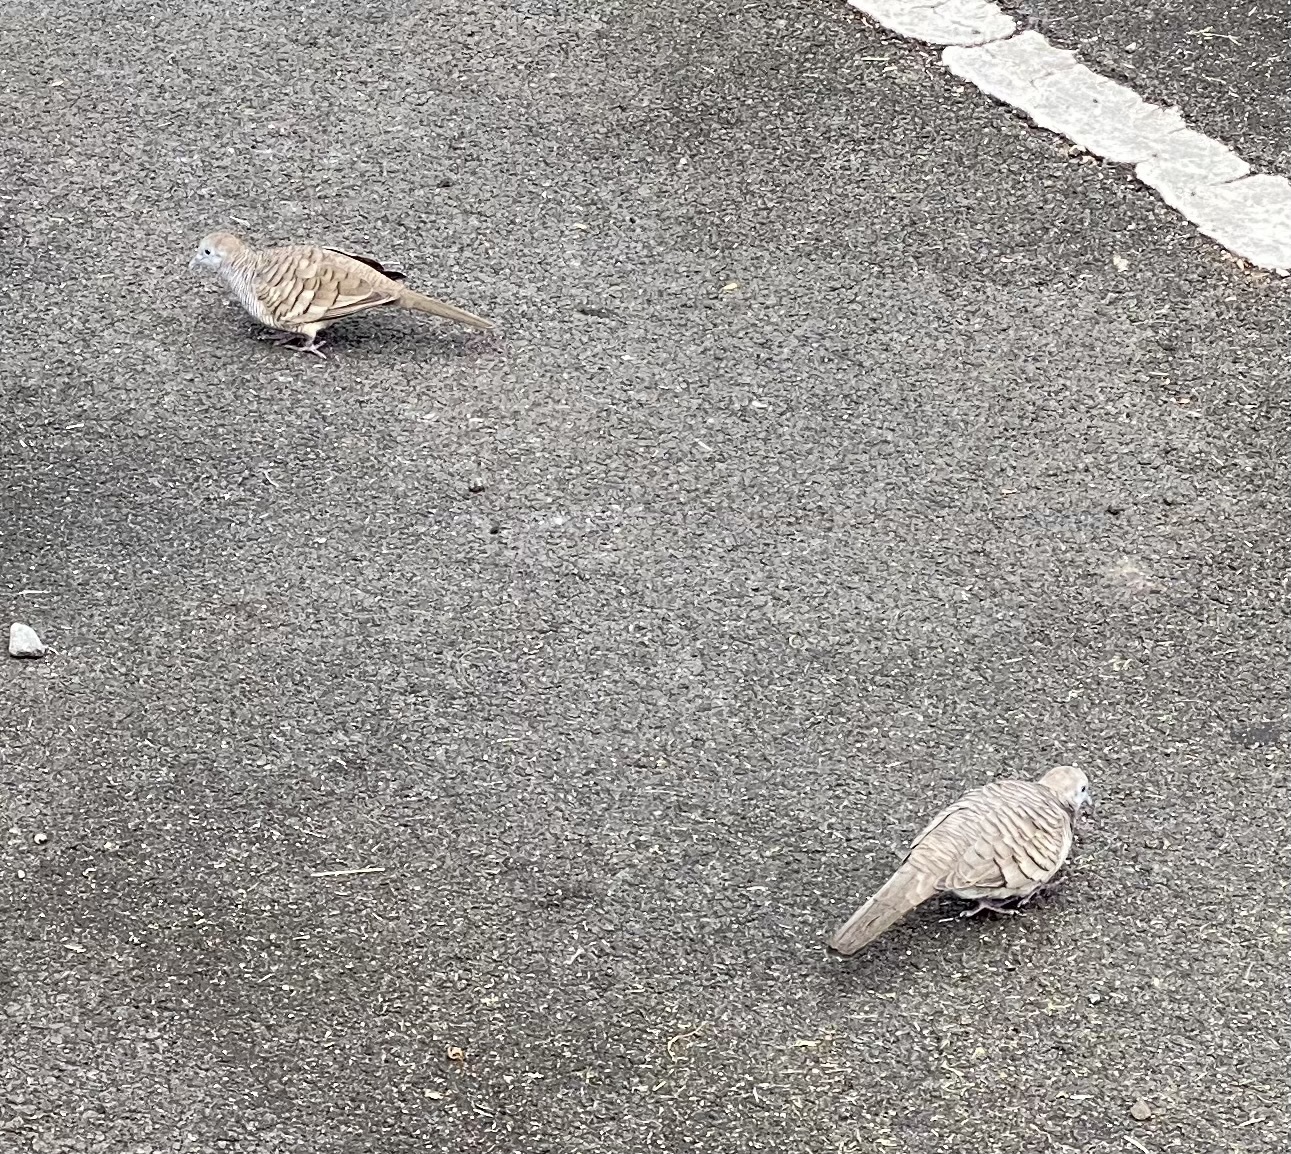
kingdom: Animalia
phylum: Chordata
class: Aves
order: Columbiformes
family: Columbidae
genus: Geopelia
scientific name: Geopelia striata
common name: Zebra dove
